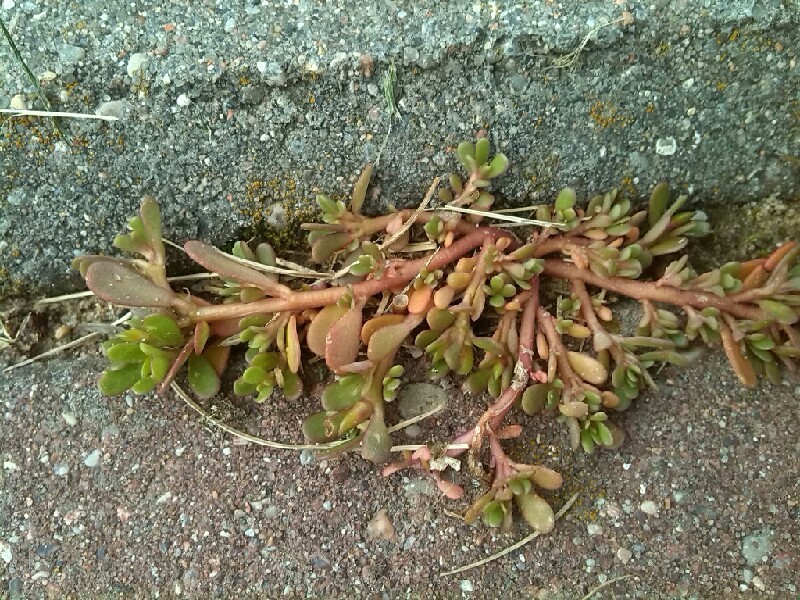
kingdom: Plantae
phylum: Tracheophyta
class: Magnoliopsida
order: Caryophyllales
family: Portulacaceae
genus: Portulaca
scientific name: Portulaca oleracea
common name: Common purslane
